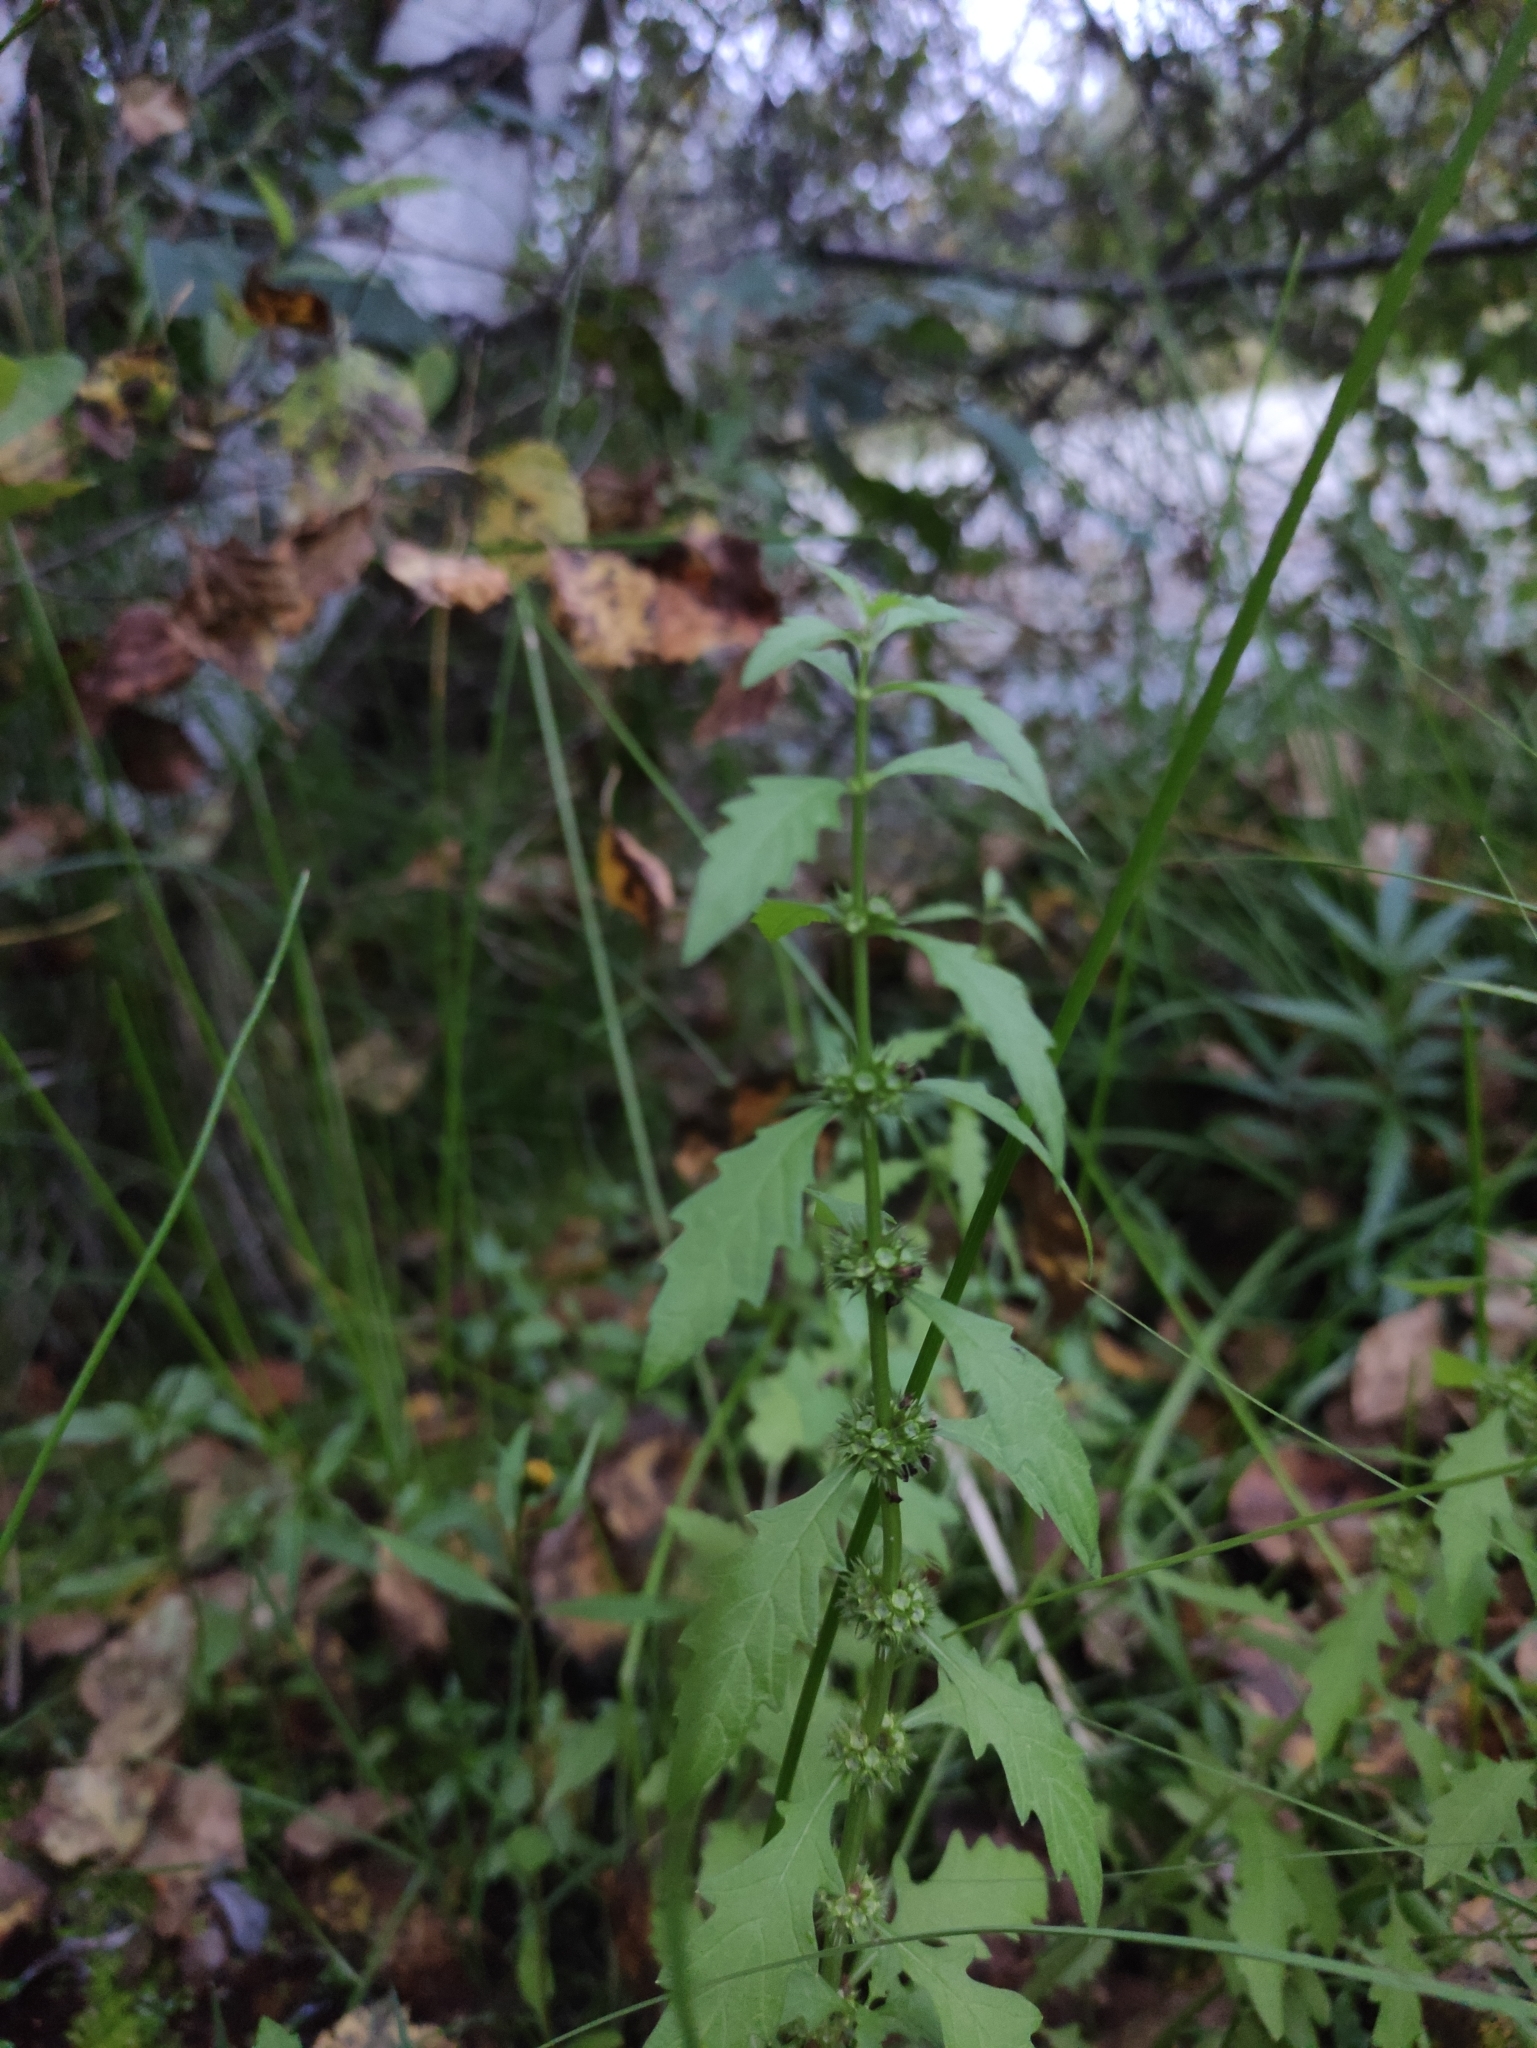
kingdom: Plantae
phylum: Tracheophyta
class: Magnoliopsida
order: Lamiales
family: Lamiaceae
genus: Lycopus
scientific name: Lycopus europaeus
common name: European bugleweed
